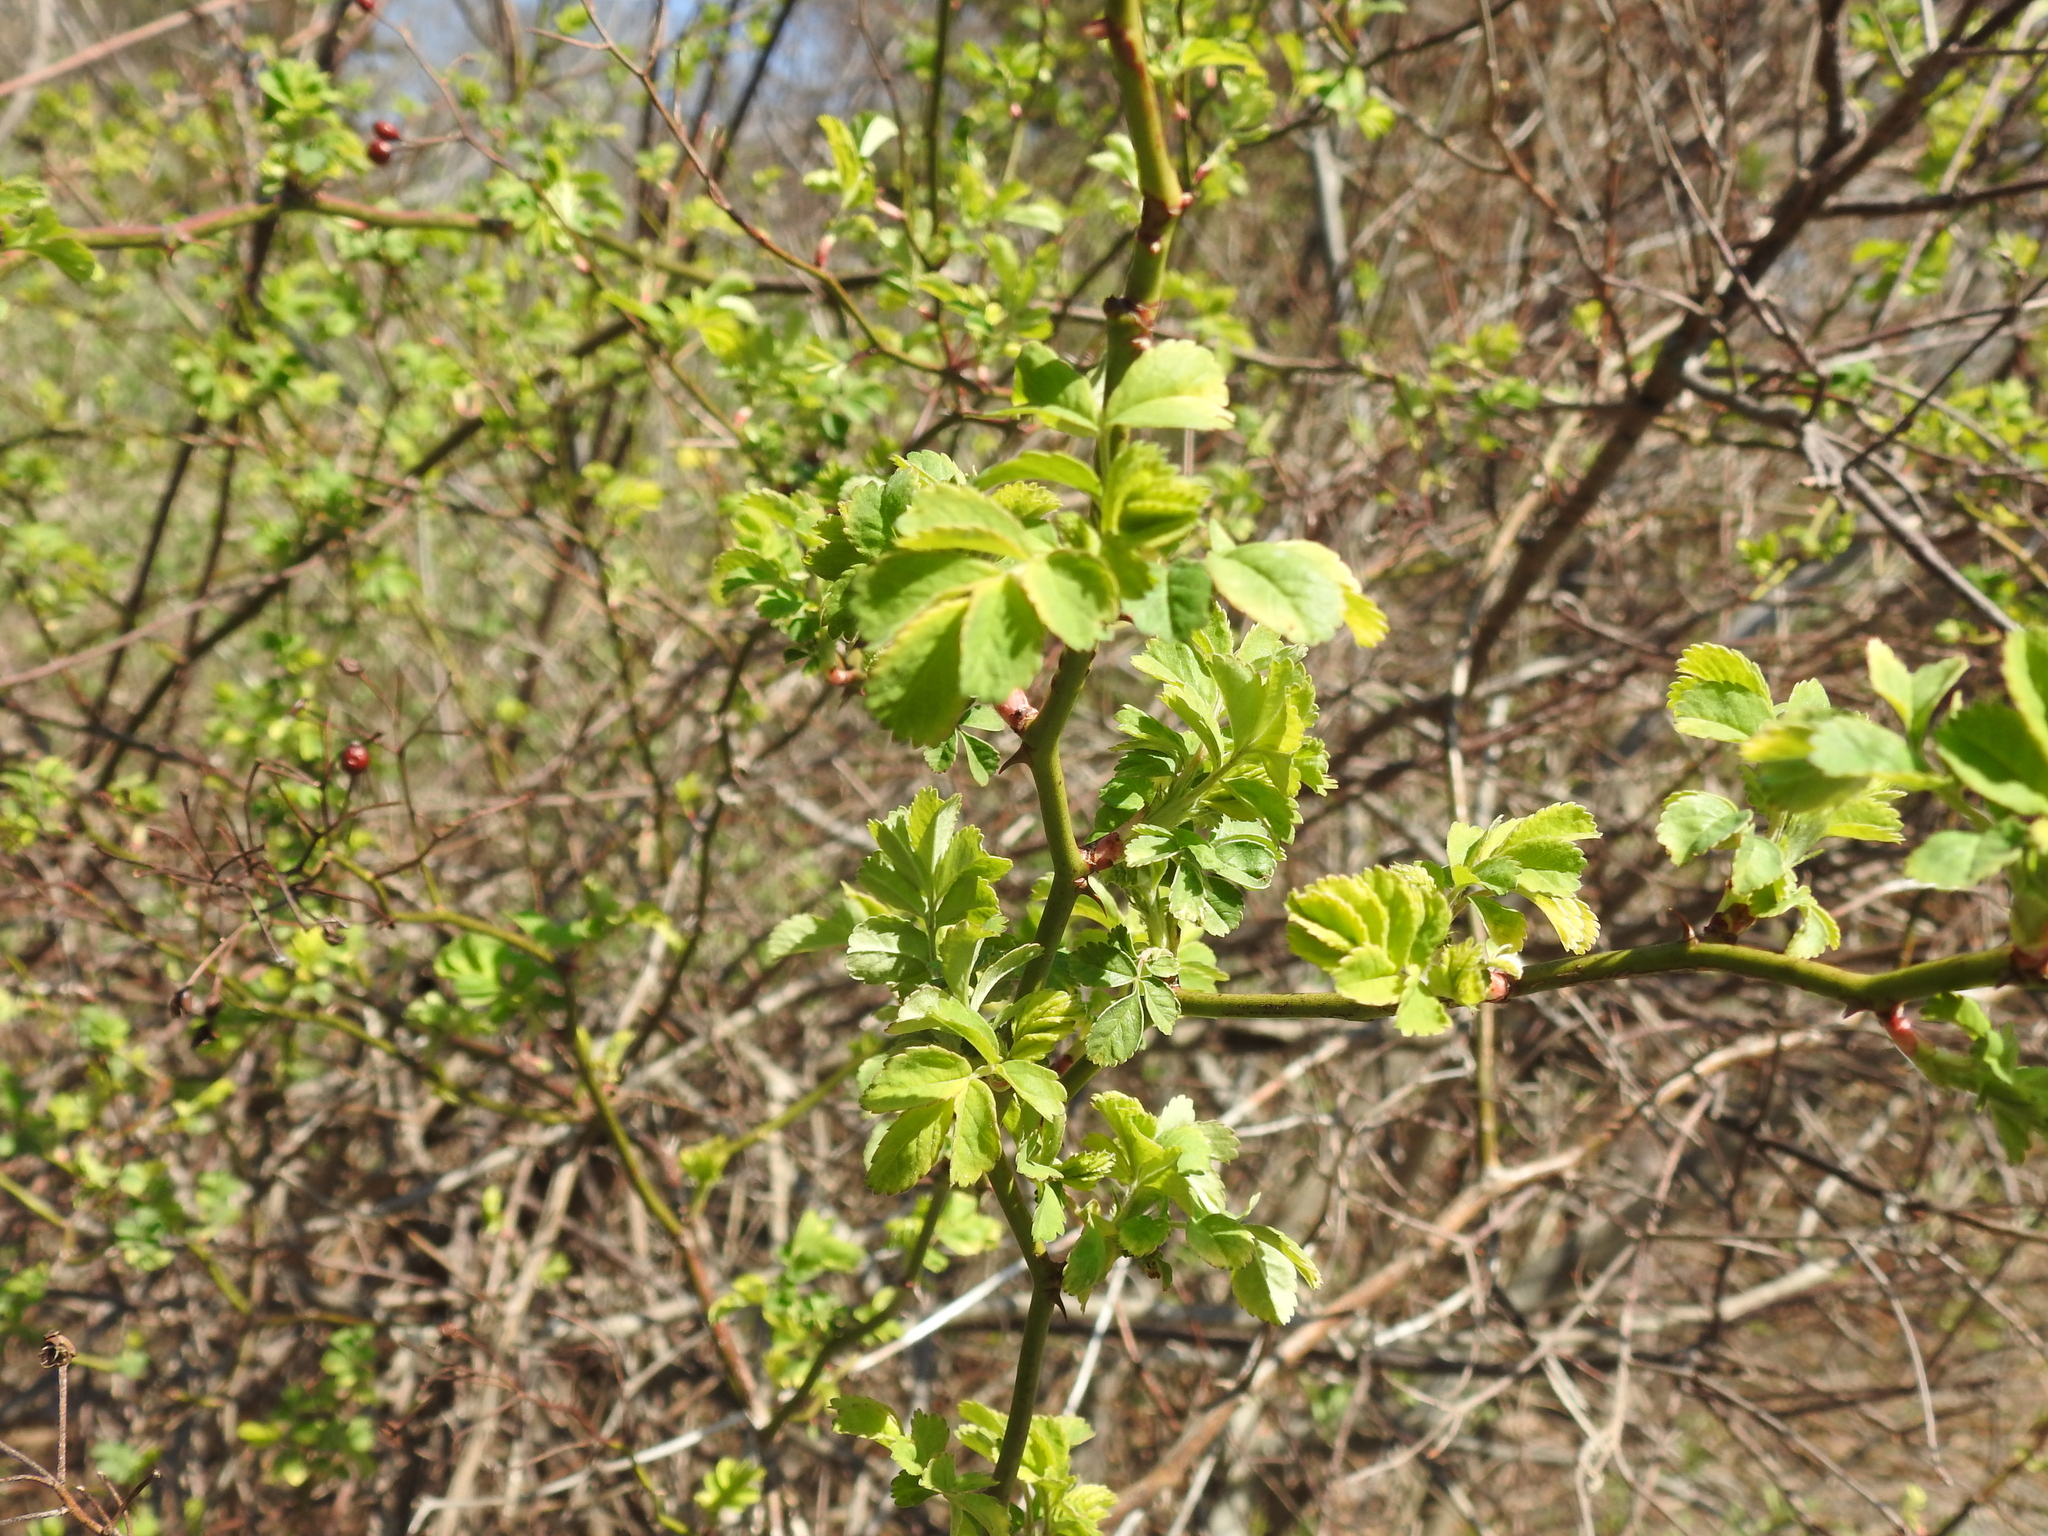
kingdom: Plantae
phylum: Tracheophyta
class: Magnoliopsida
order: Rosales
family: Rosaceae
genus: Rosa
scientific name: Rosa multiflora
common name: Multiflora rose
